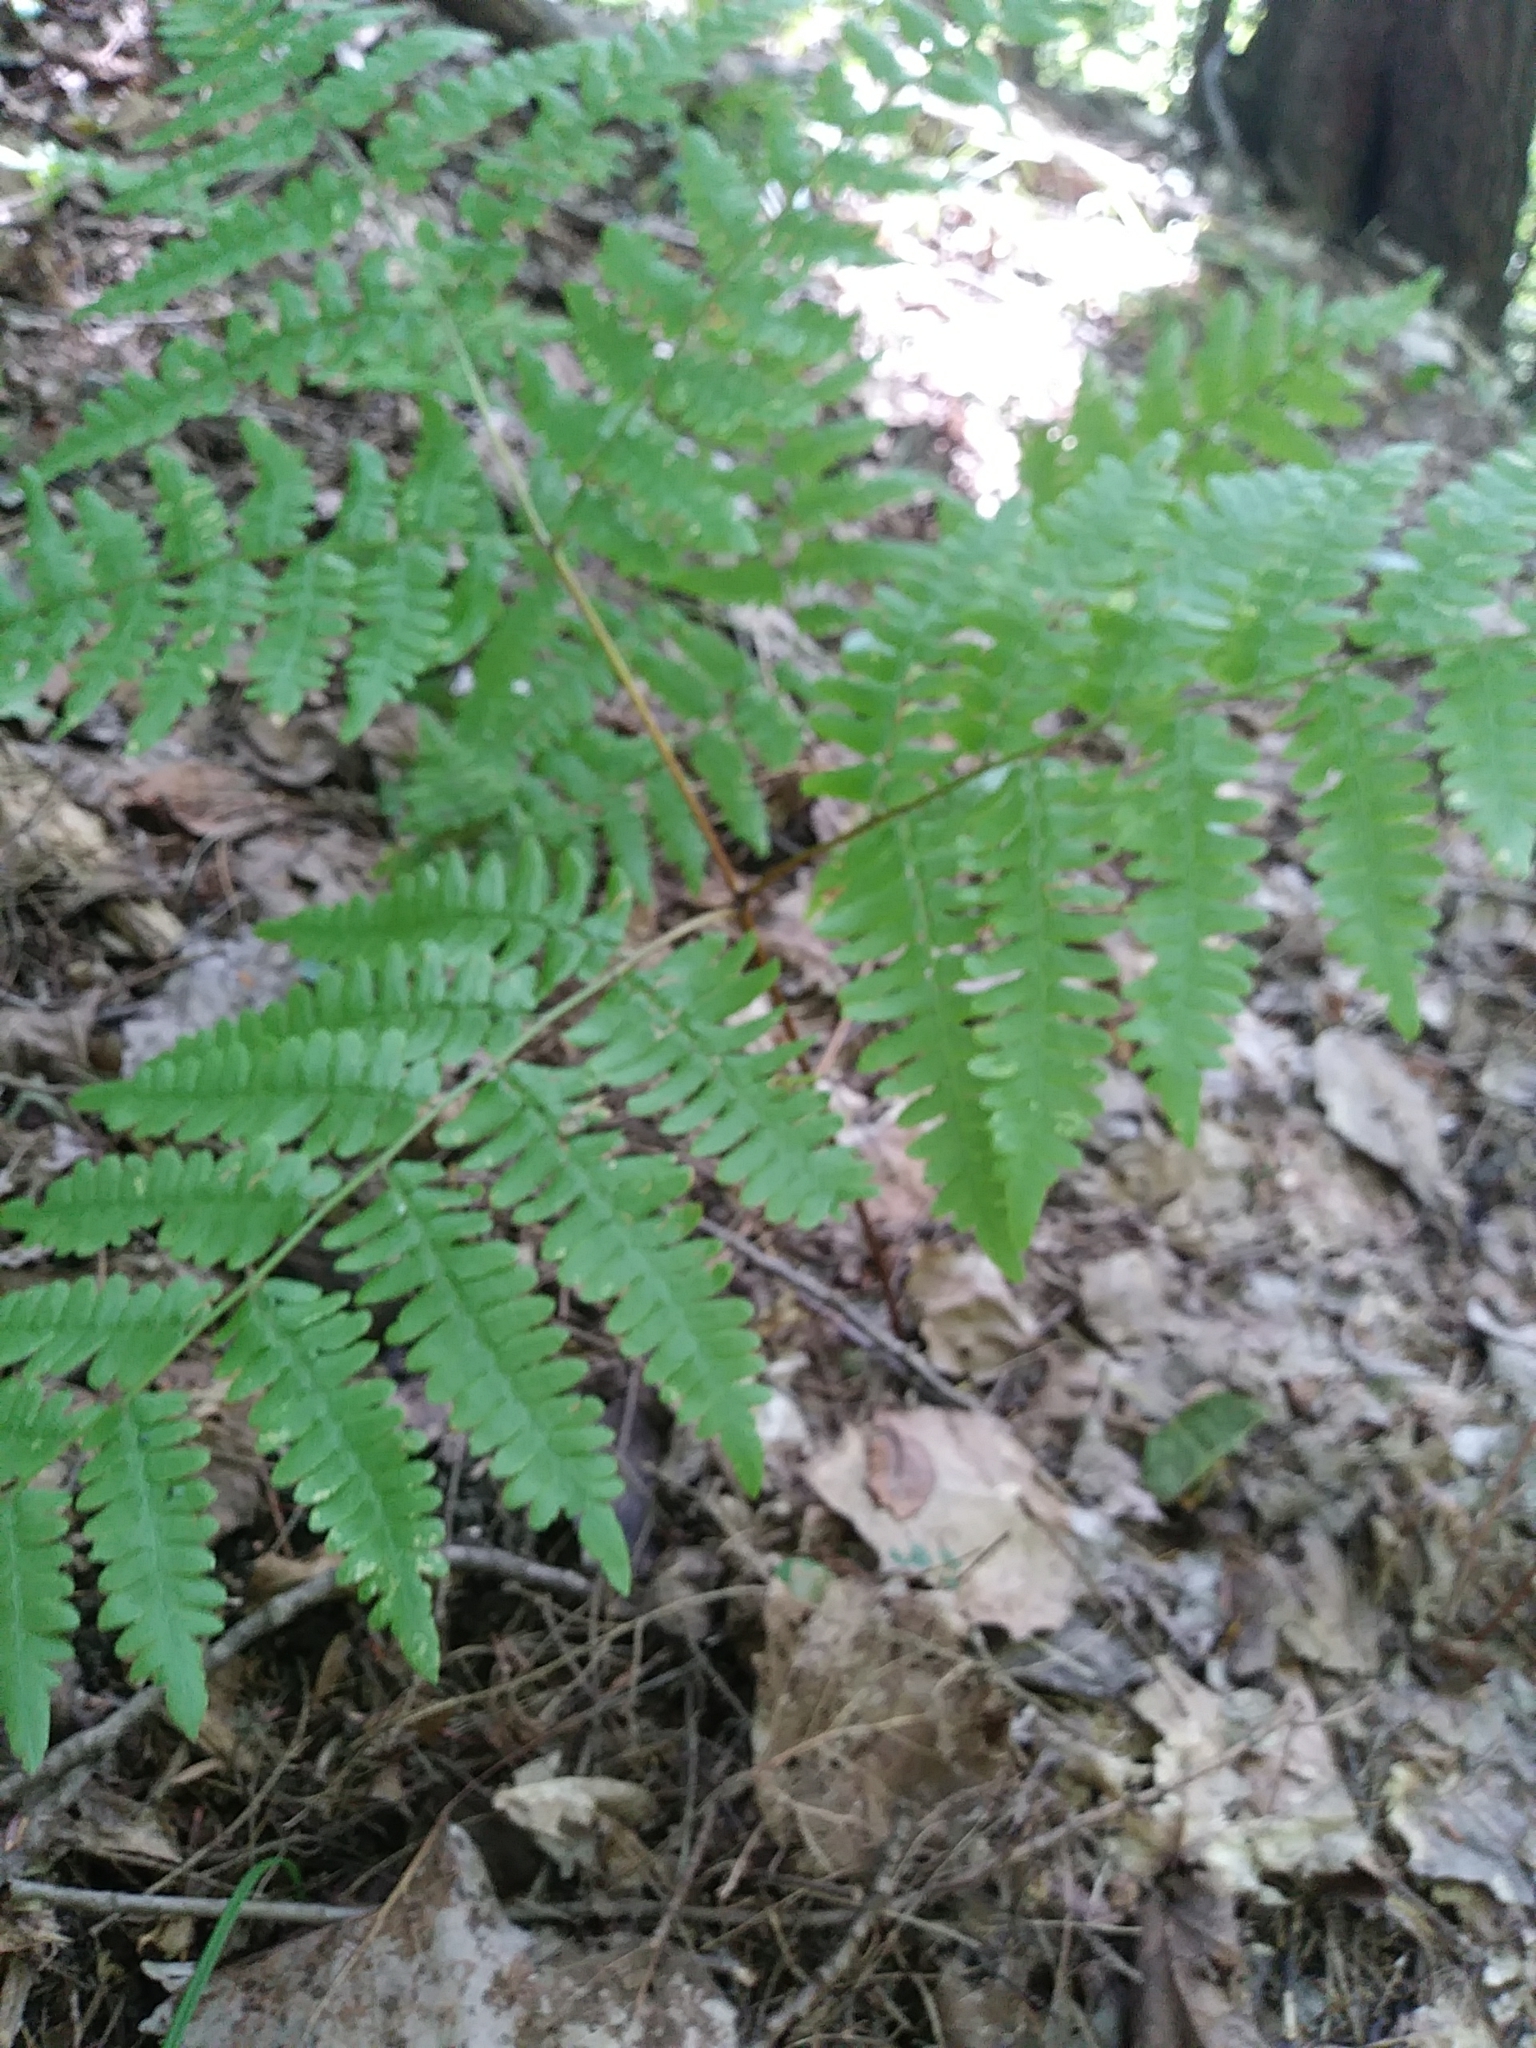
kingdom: Plantae
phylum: Tracheophyta
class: Polypodiopsida
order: Polypodiales
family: Dennstaedtiaceae
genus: Pteridium
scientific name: Pteridium aquilinum
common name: Bracken
